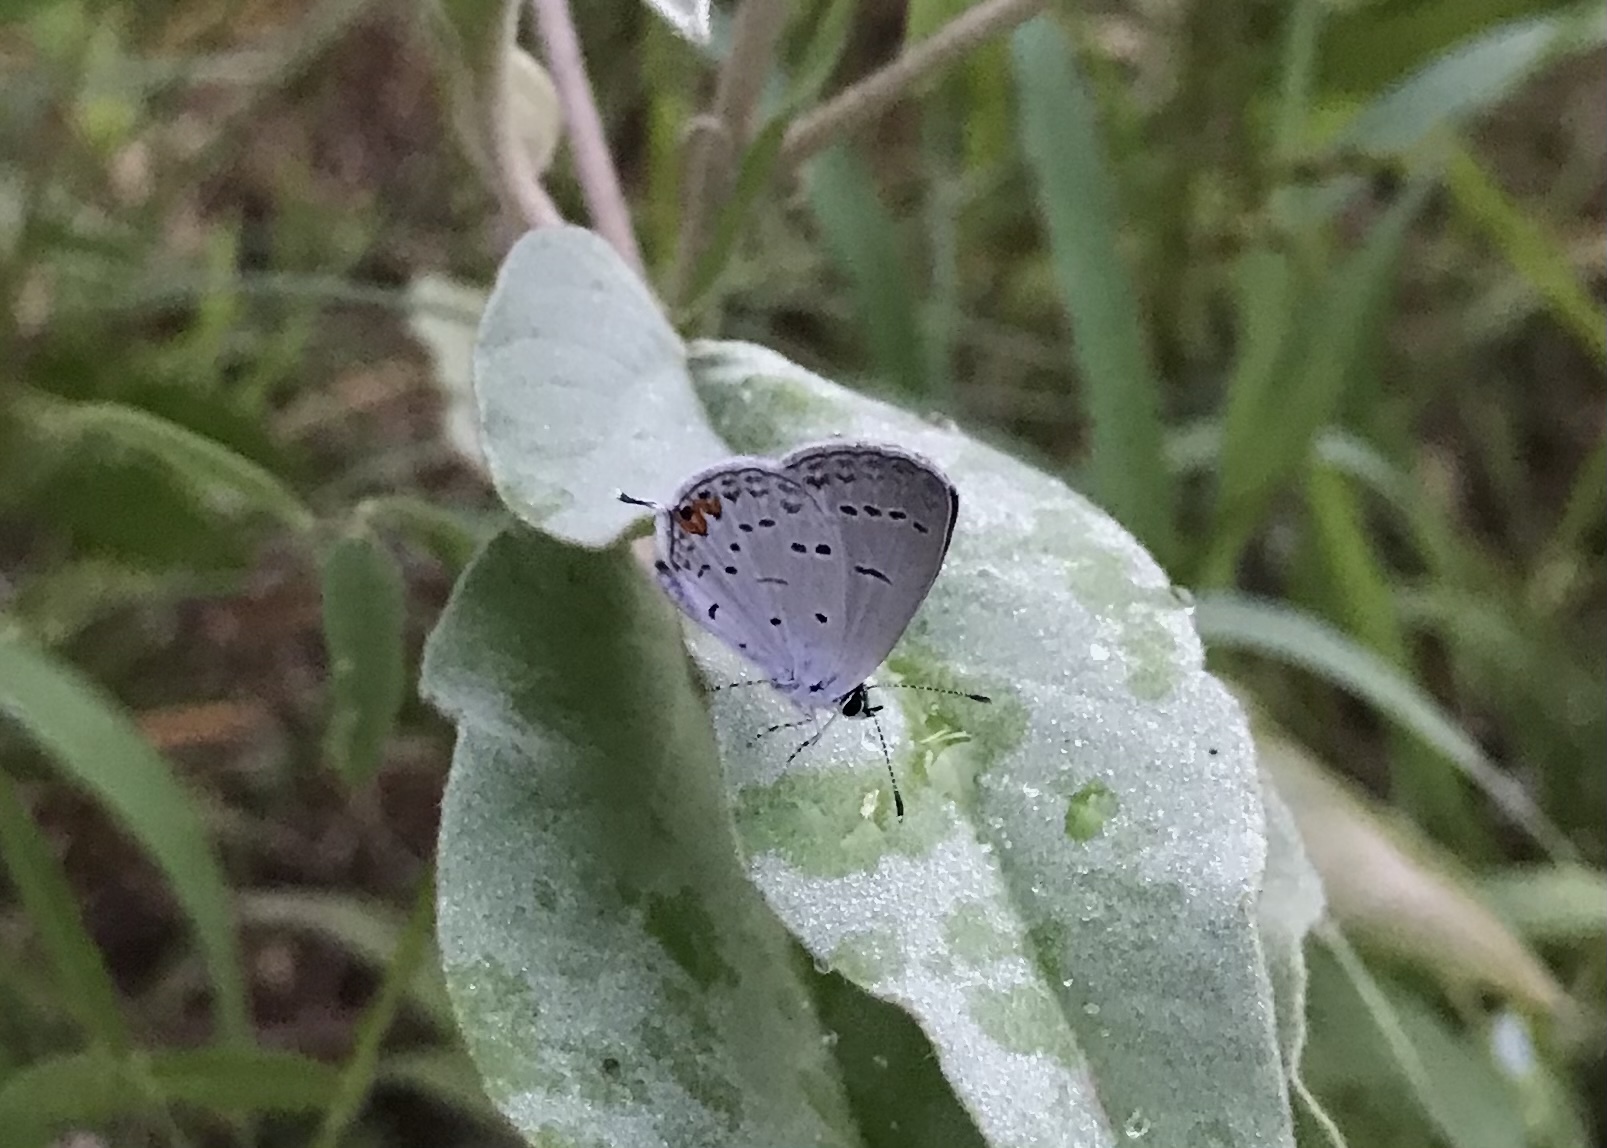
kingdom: Animalia
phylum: Arthropoda
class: Insecta
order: Lepidoptera
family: Lycaenidae
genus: Elkalyce
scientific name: Elkalyce comyntas
